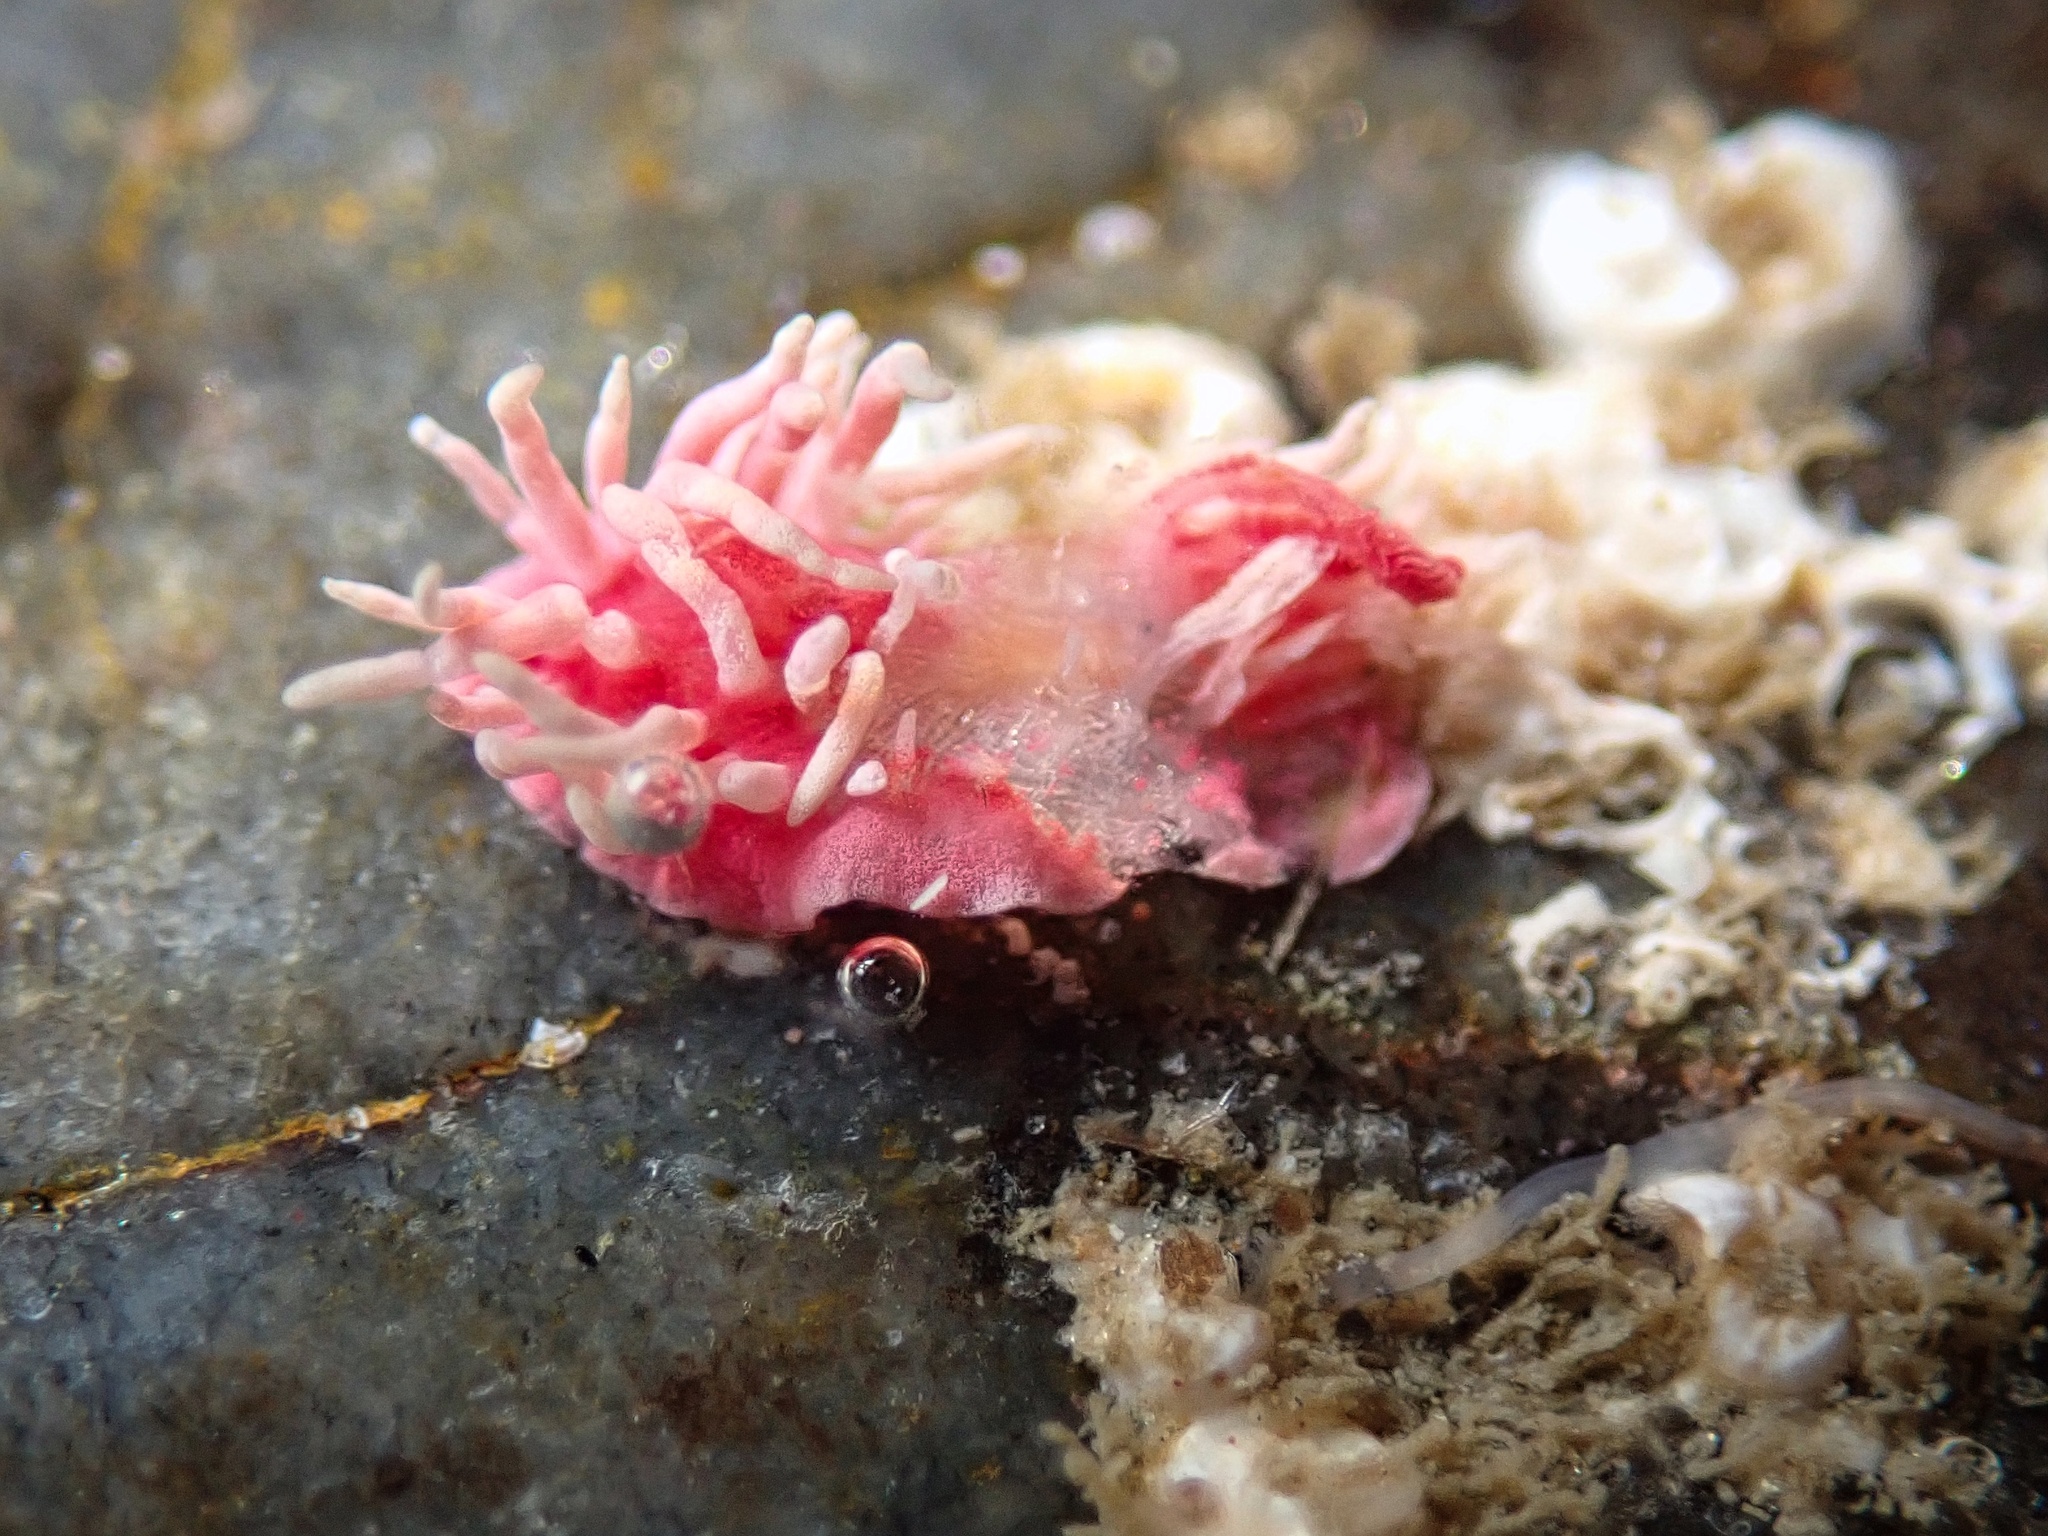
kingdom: Animalia
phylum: Mollusca
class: Gastropoda
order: Nudibranchia
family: Goniodorididae
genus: Okenia
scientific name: Okenia
